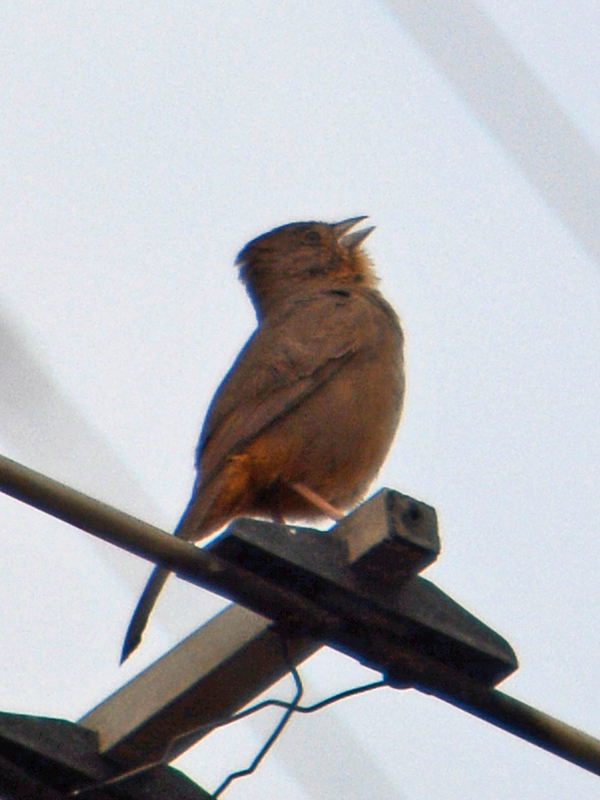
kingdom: Animalia
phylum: Chordata
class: Aves
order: Passeriformes
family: Passerellidae
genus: Melozone
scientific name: Melozone fusca
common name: Canyon towhee
